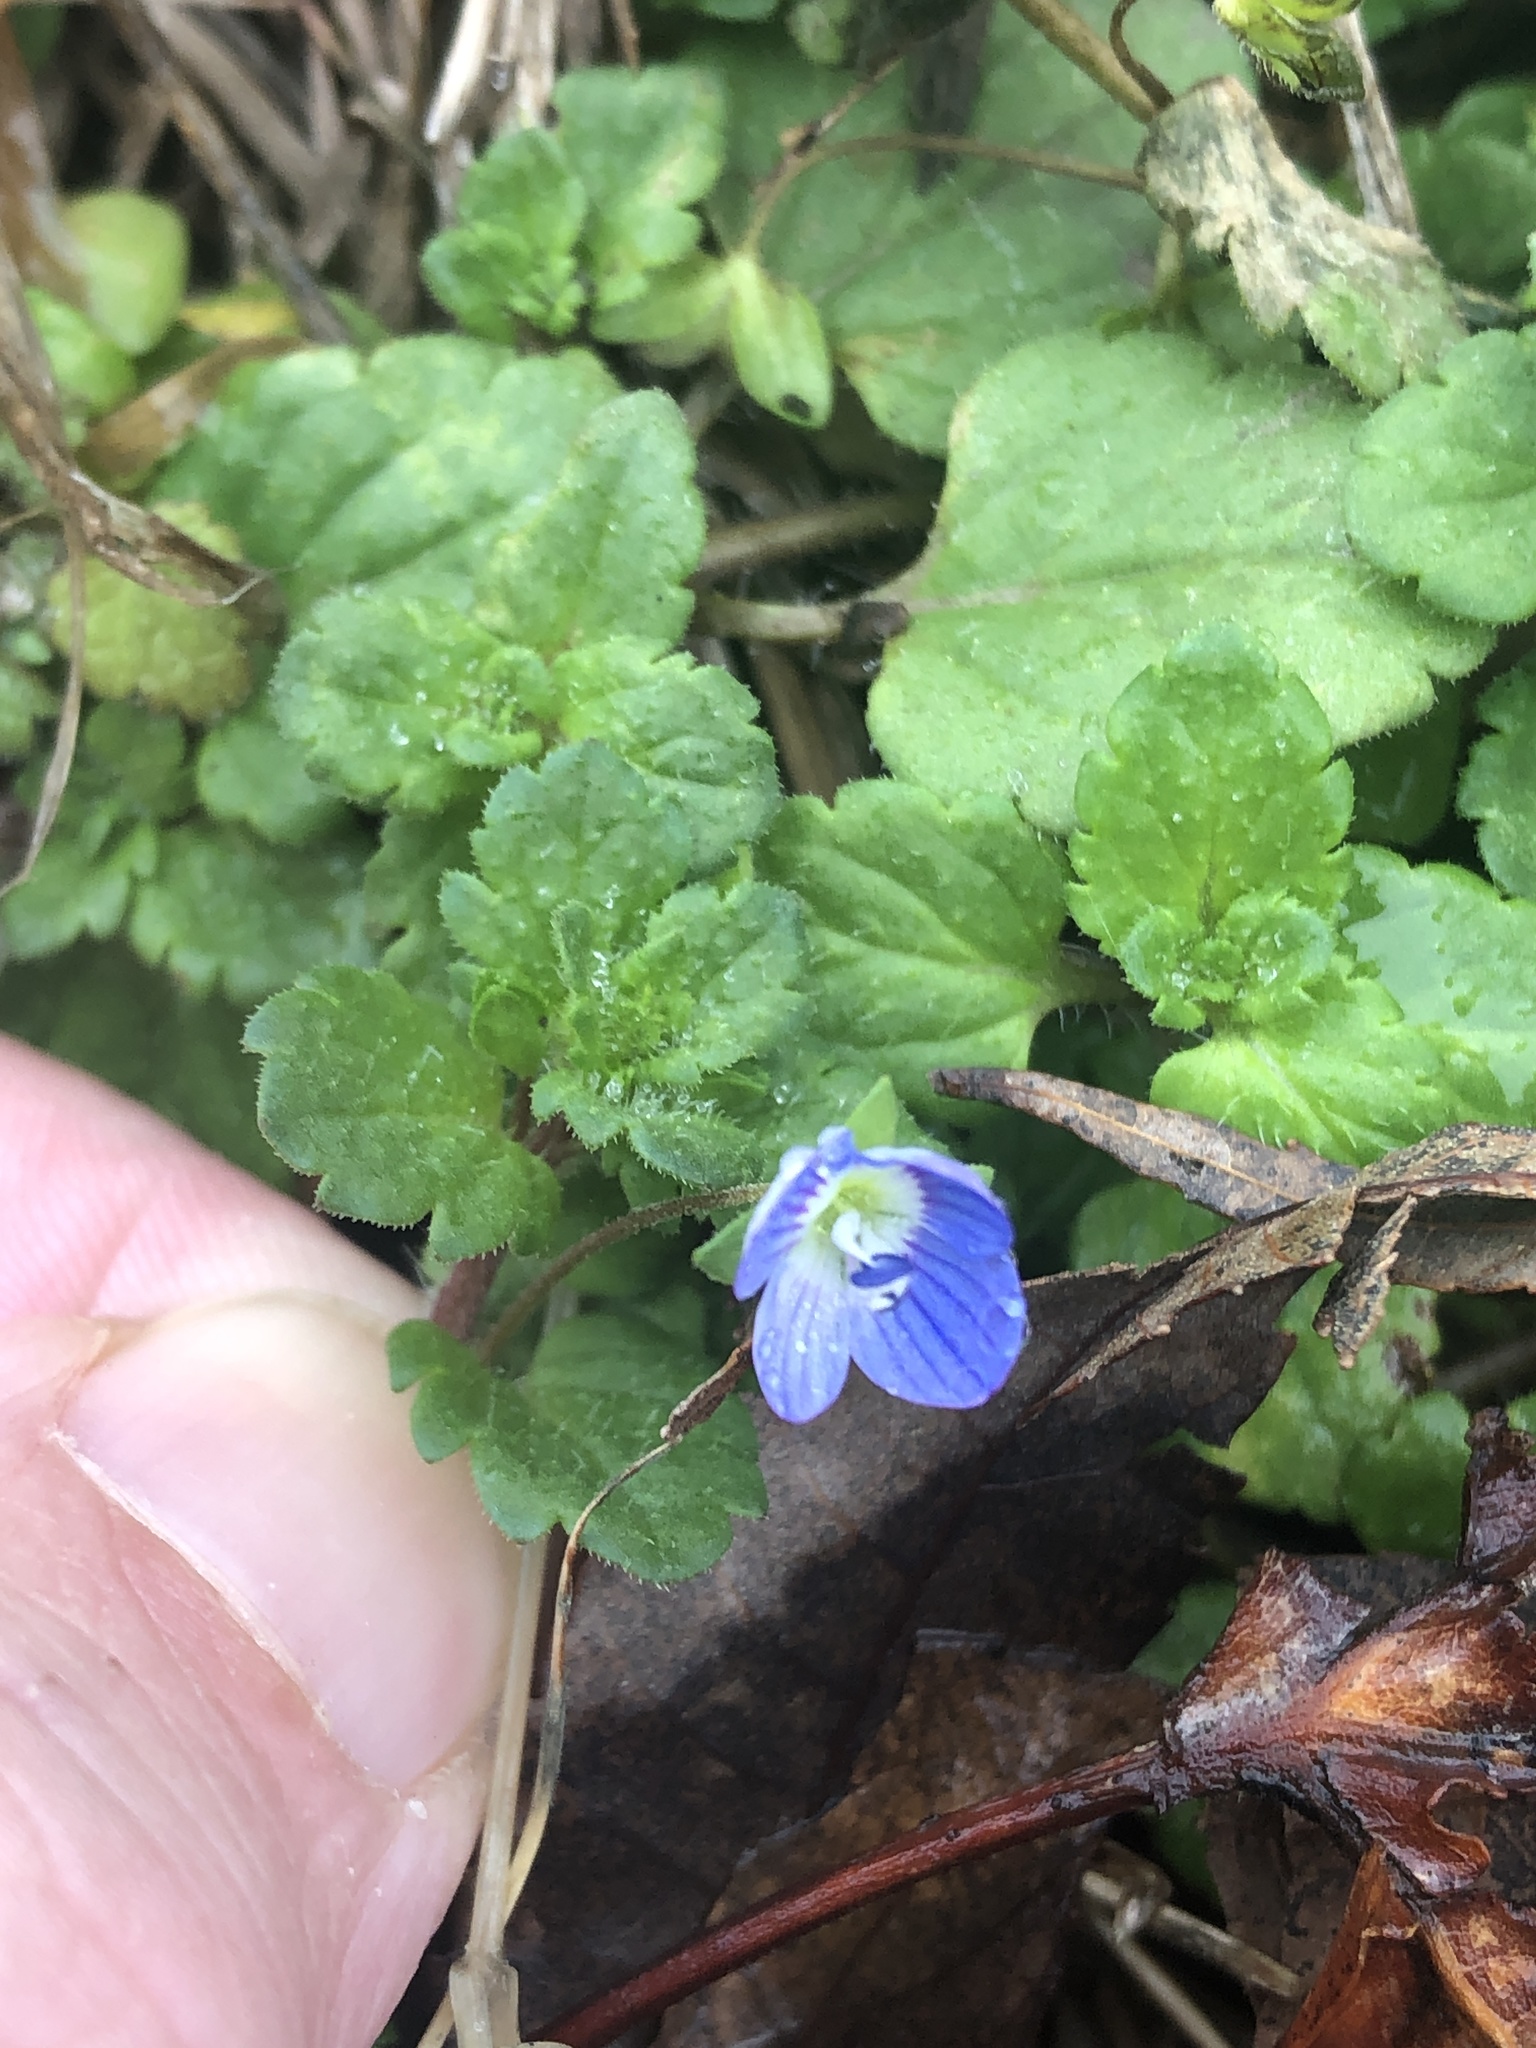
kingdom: Plantae
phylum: Tracheophyta
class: Magnoliopsida
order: Lamiales
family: Plantaginaceae
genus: Veronica
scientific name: Veronica persica
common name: Common field-speedwell
